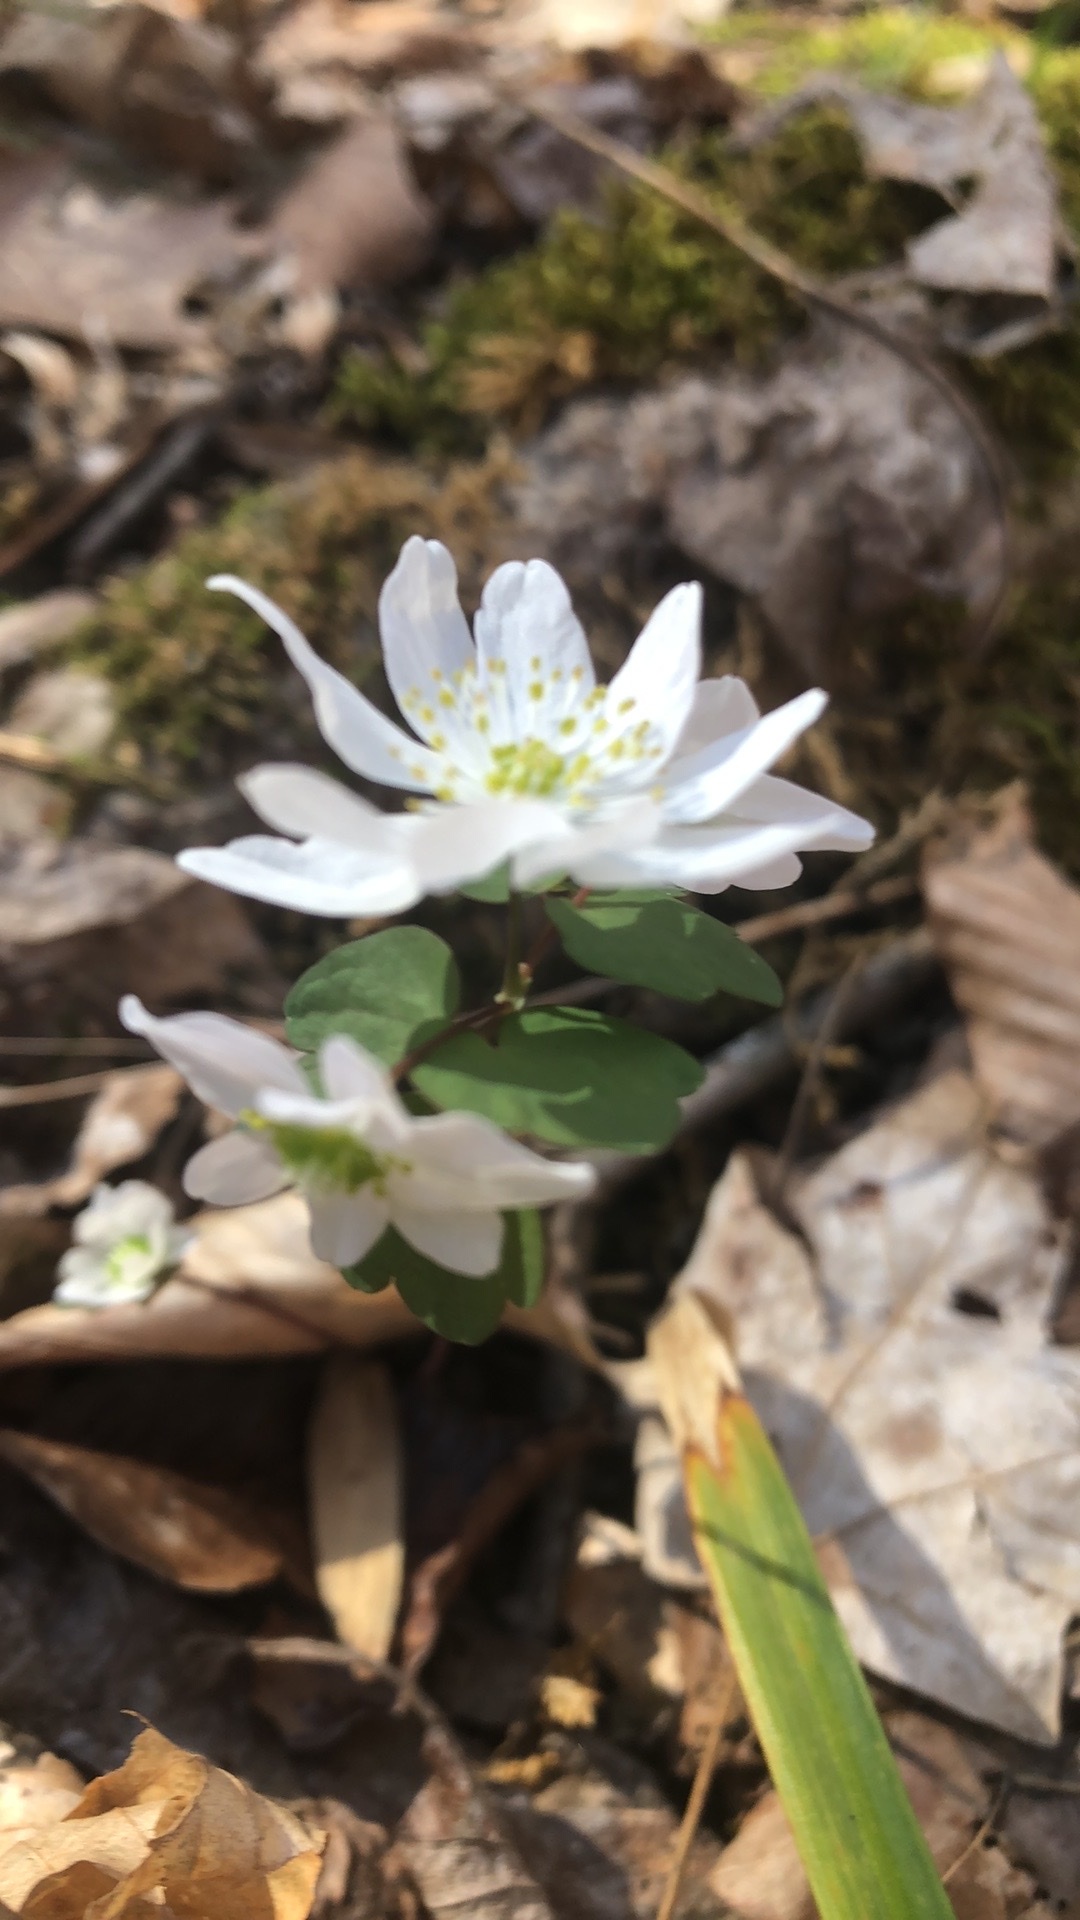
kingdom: Plantae
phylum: Tracheophyta
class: Magnoliopsida
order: Ranunculales
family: Ranunculaceae
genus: Thalictrum
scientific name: Thalictrum thalictroides
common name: Rue-anemone
